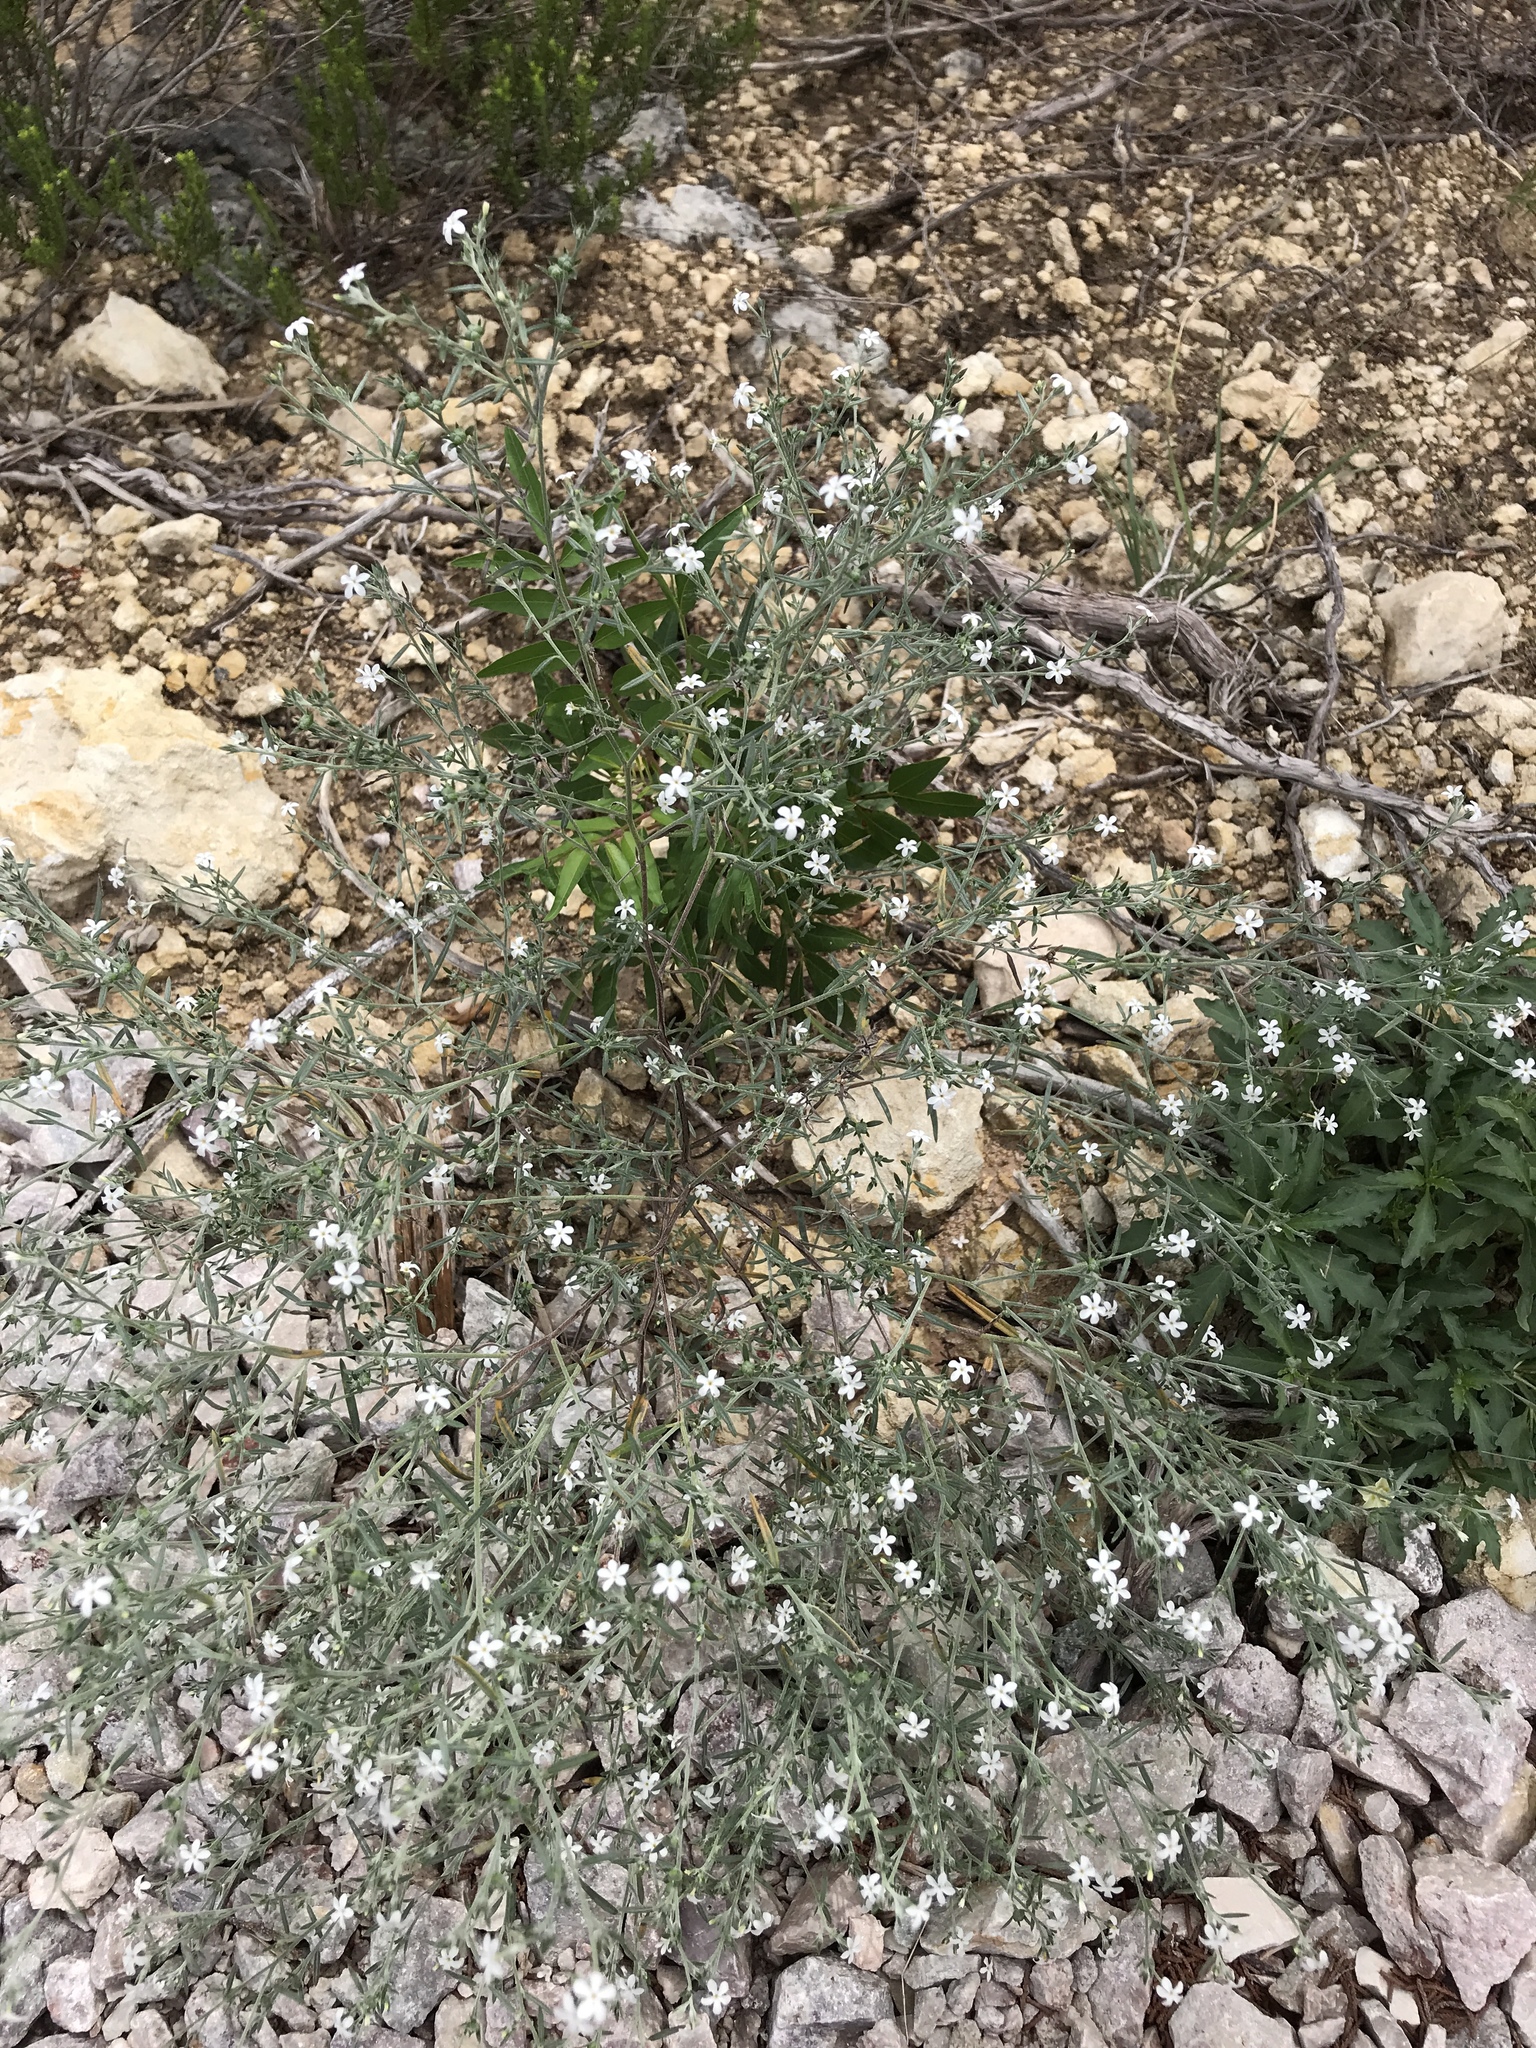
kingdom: Plantae
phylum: Tracheophyta
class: Magnoliopsida
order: Boraginales
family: Heliotropiaceae
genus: Euploca
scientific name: Euploca tenella
